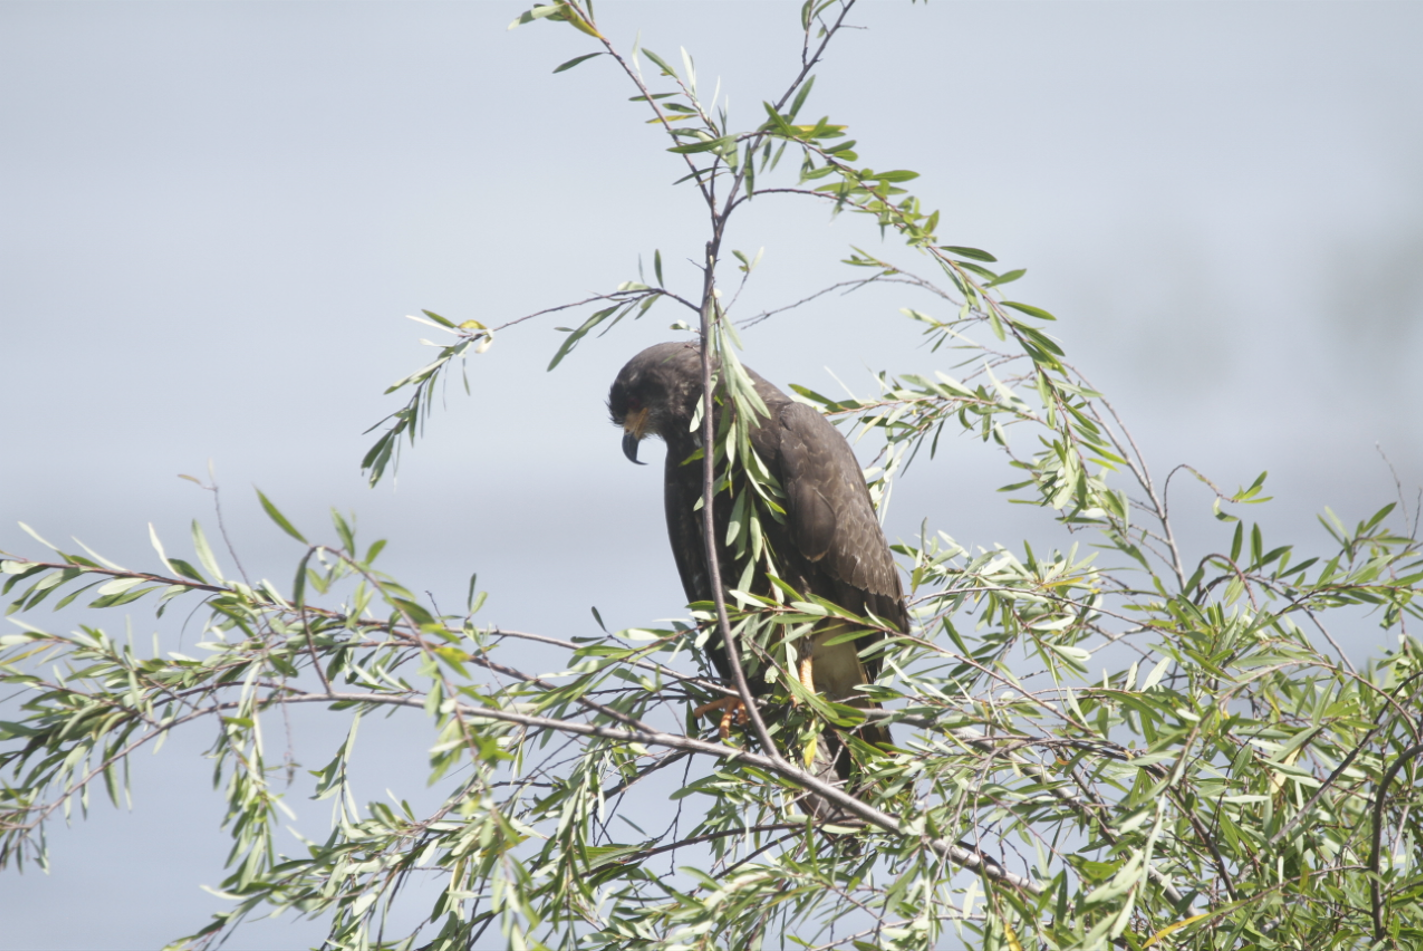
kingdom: Animalia
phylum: Chordata
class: Aves
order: Accipitriformes
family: Accipitridae
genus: Rostrhamus
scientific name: Rostrhamus sociabilis
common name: Snail kite
